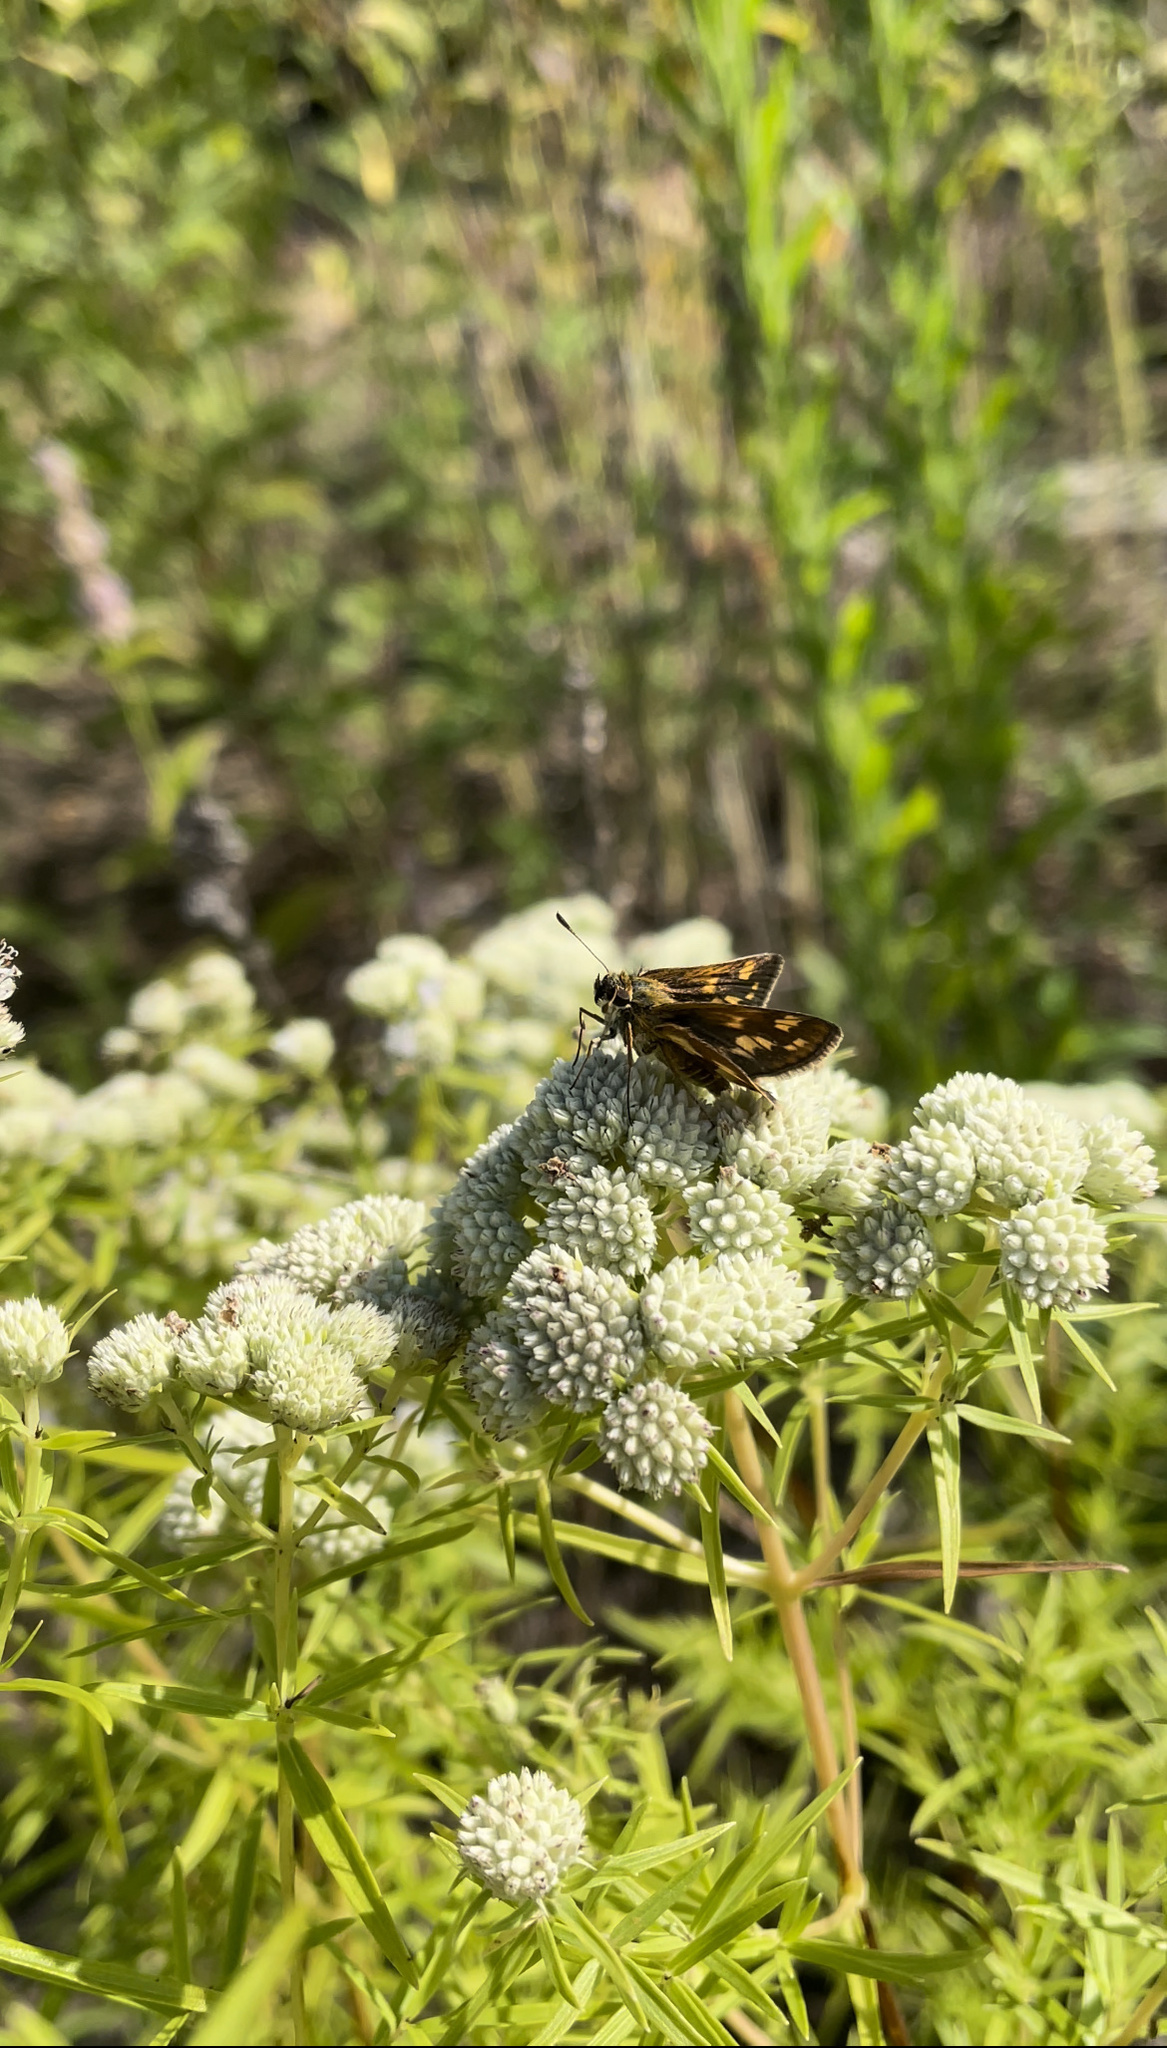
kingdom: Animalia
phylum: Arthropoda
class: Insecta
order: Lepidoptera
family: Hesperiidae
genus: Polites
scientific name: Polites coras
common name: Peck's skipper
